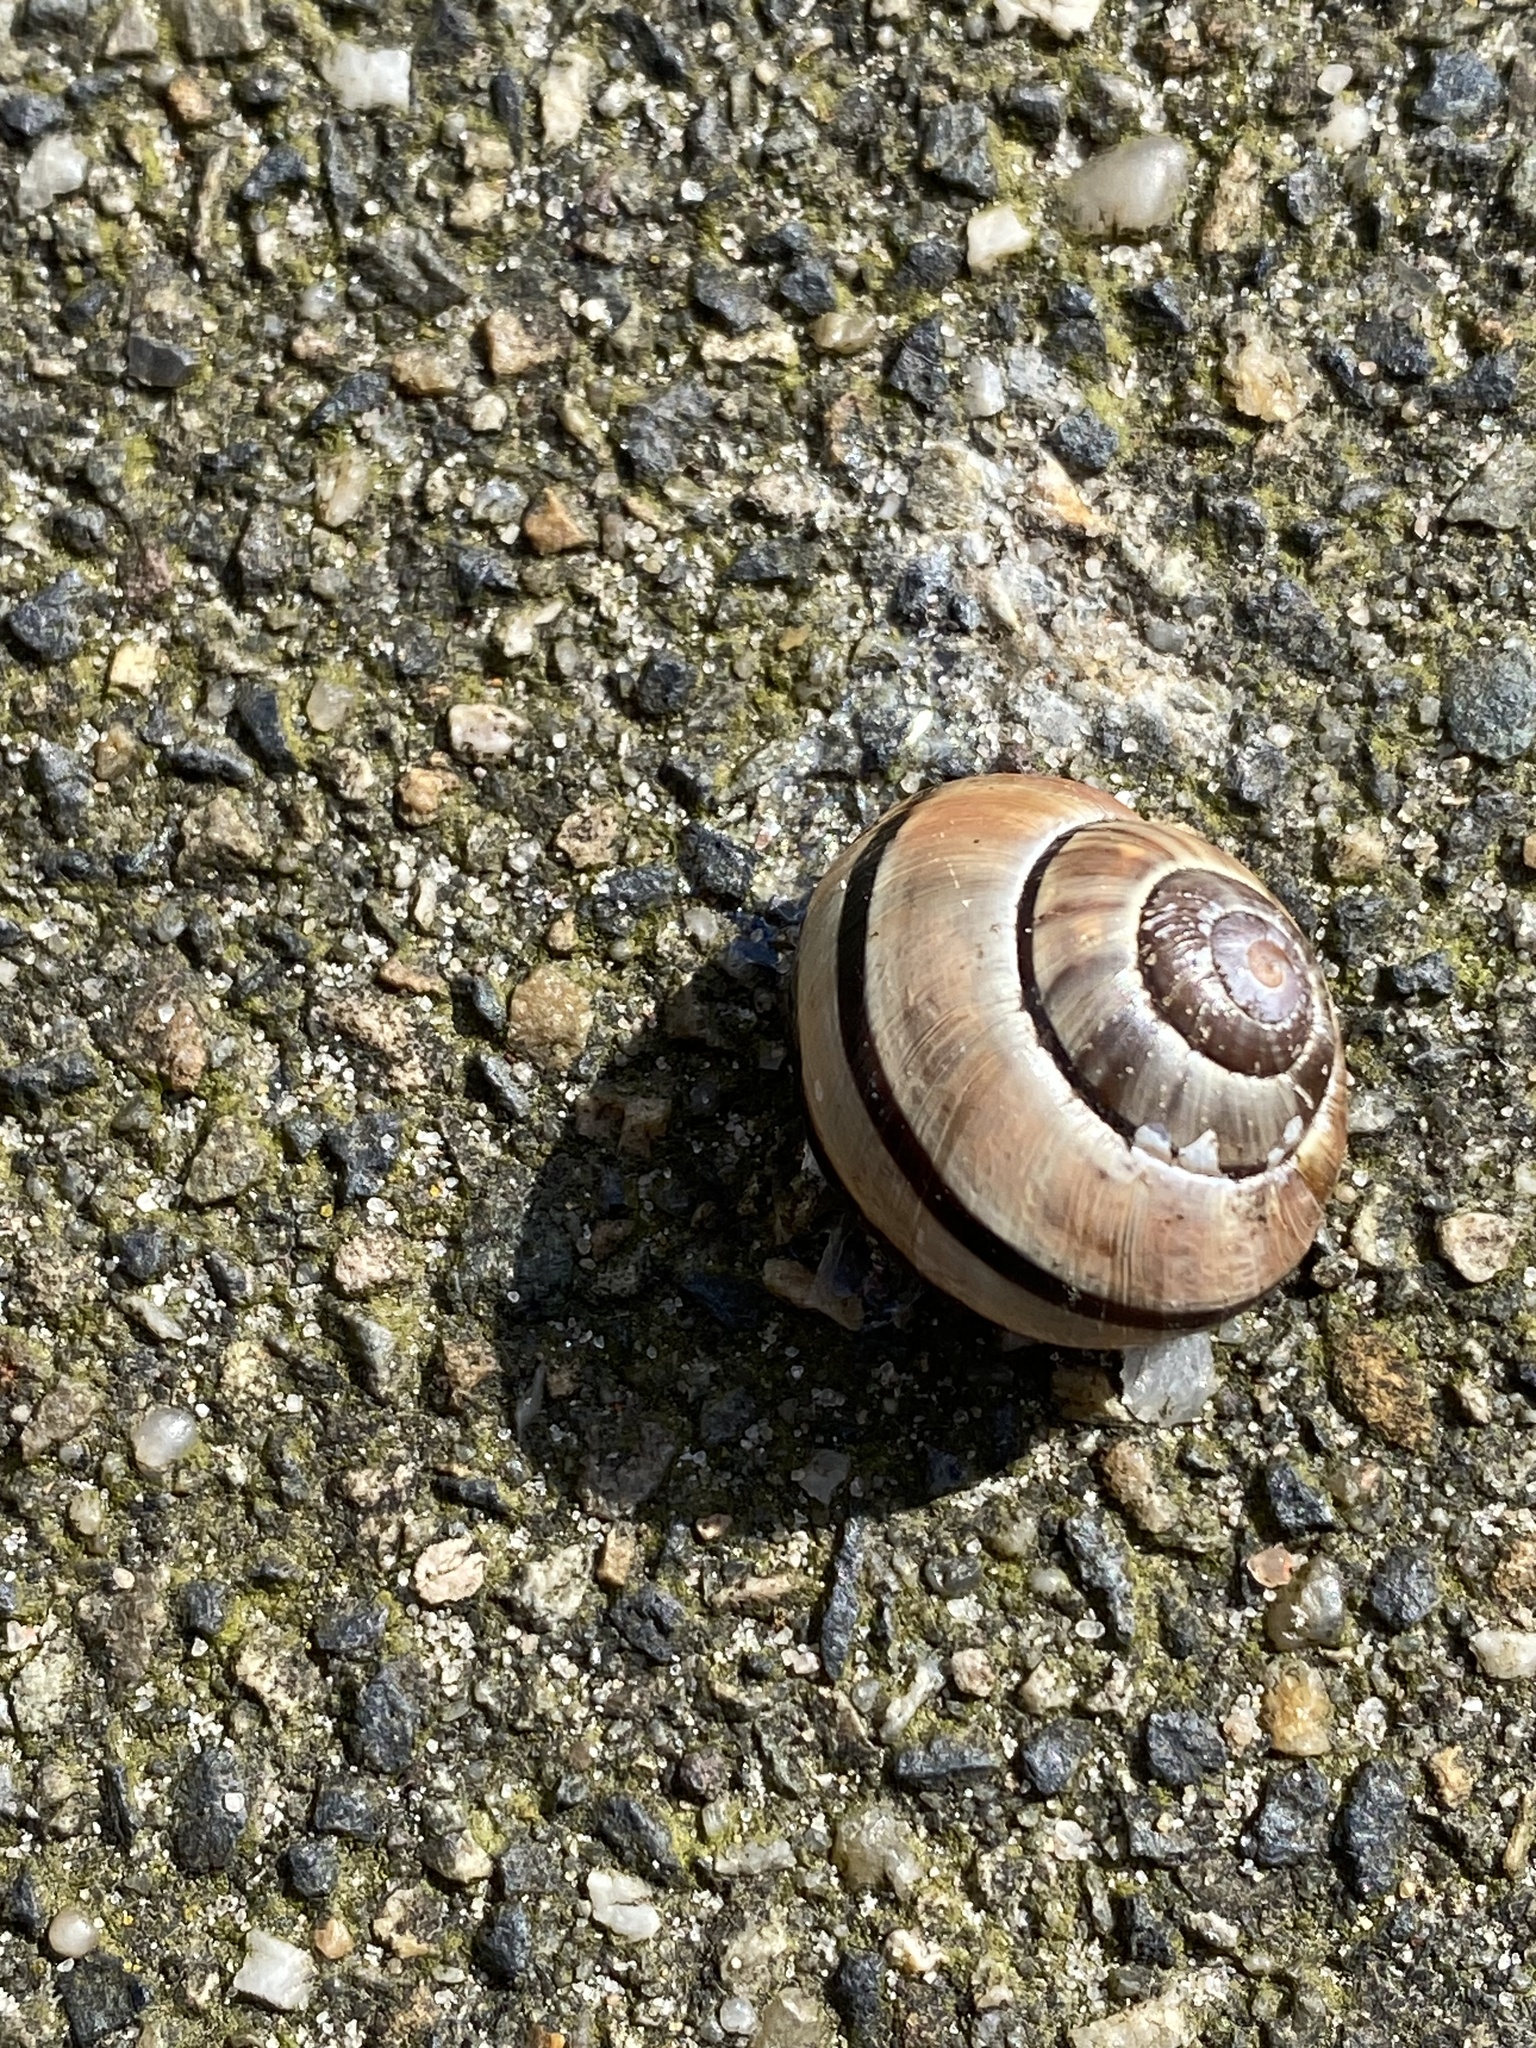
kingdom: Animalia
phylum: Mollusca
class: Gastropoda
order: Stylommatophora
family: Helicidae
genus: Cepaea
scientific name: Cepaea nemoralis
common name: Grovesnail
